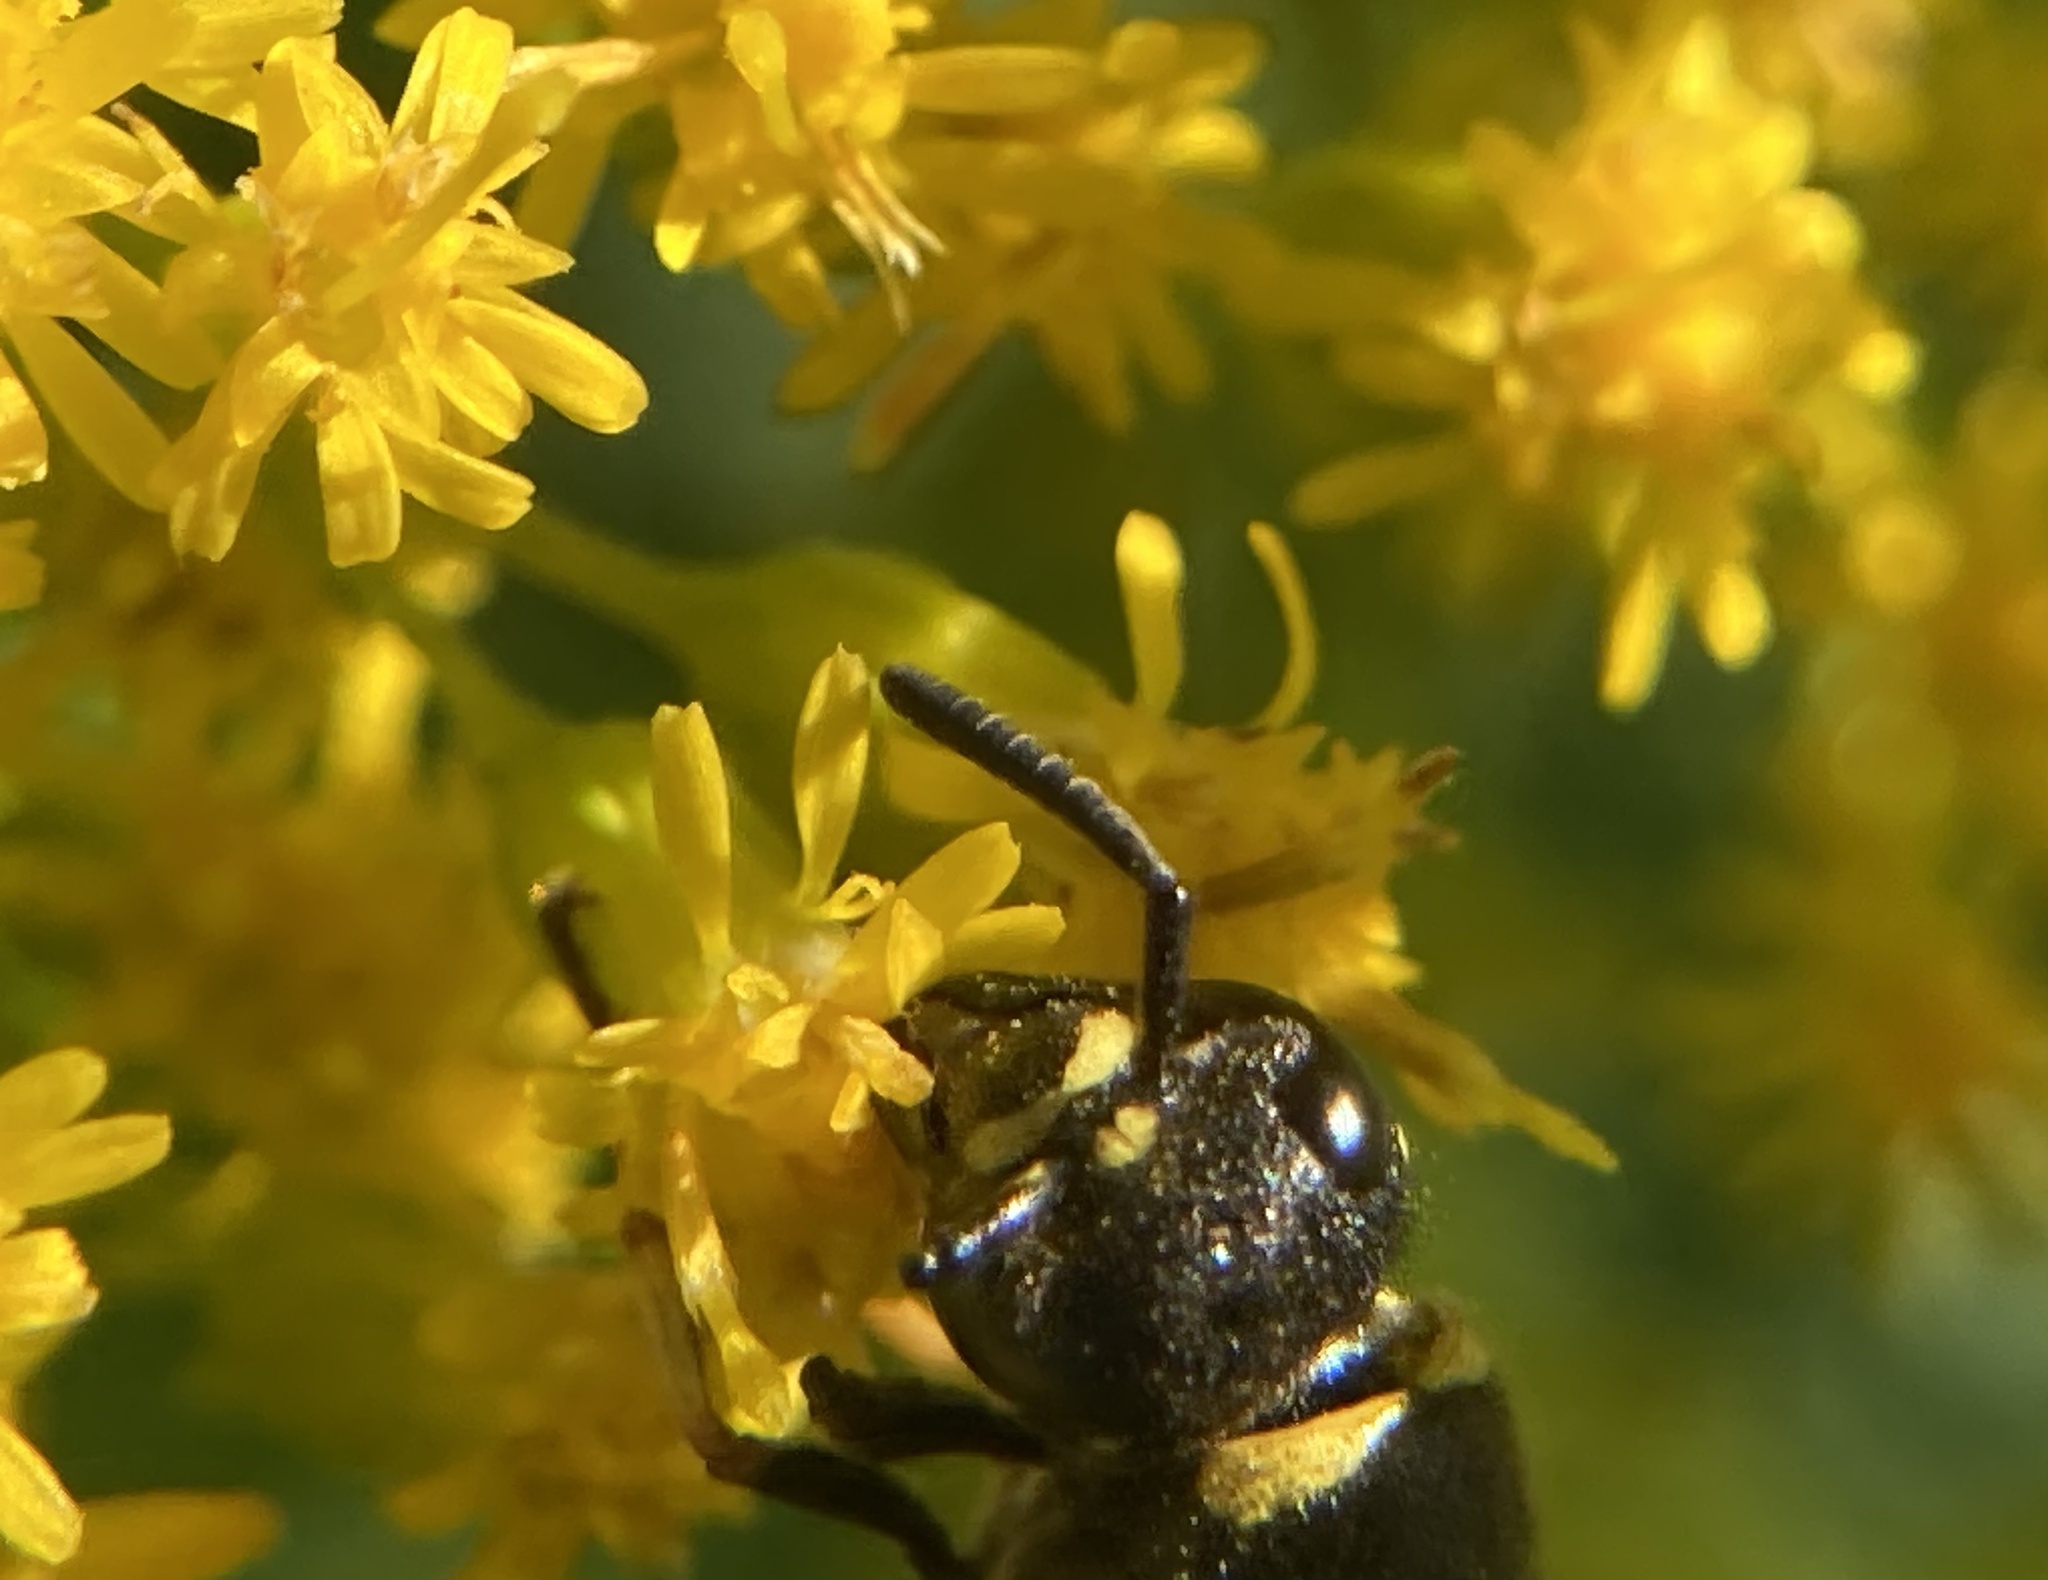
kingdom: Animalia
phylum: Arthropoda
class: Insecta
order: Hymenoptera
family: Eumenidae
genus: Euodynerus
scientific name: Euodynerus foraminatus
